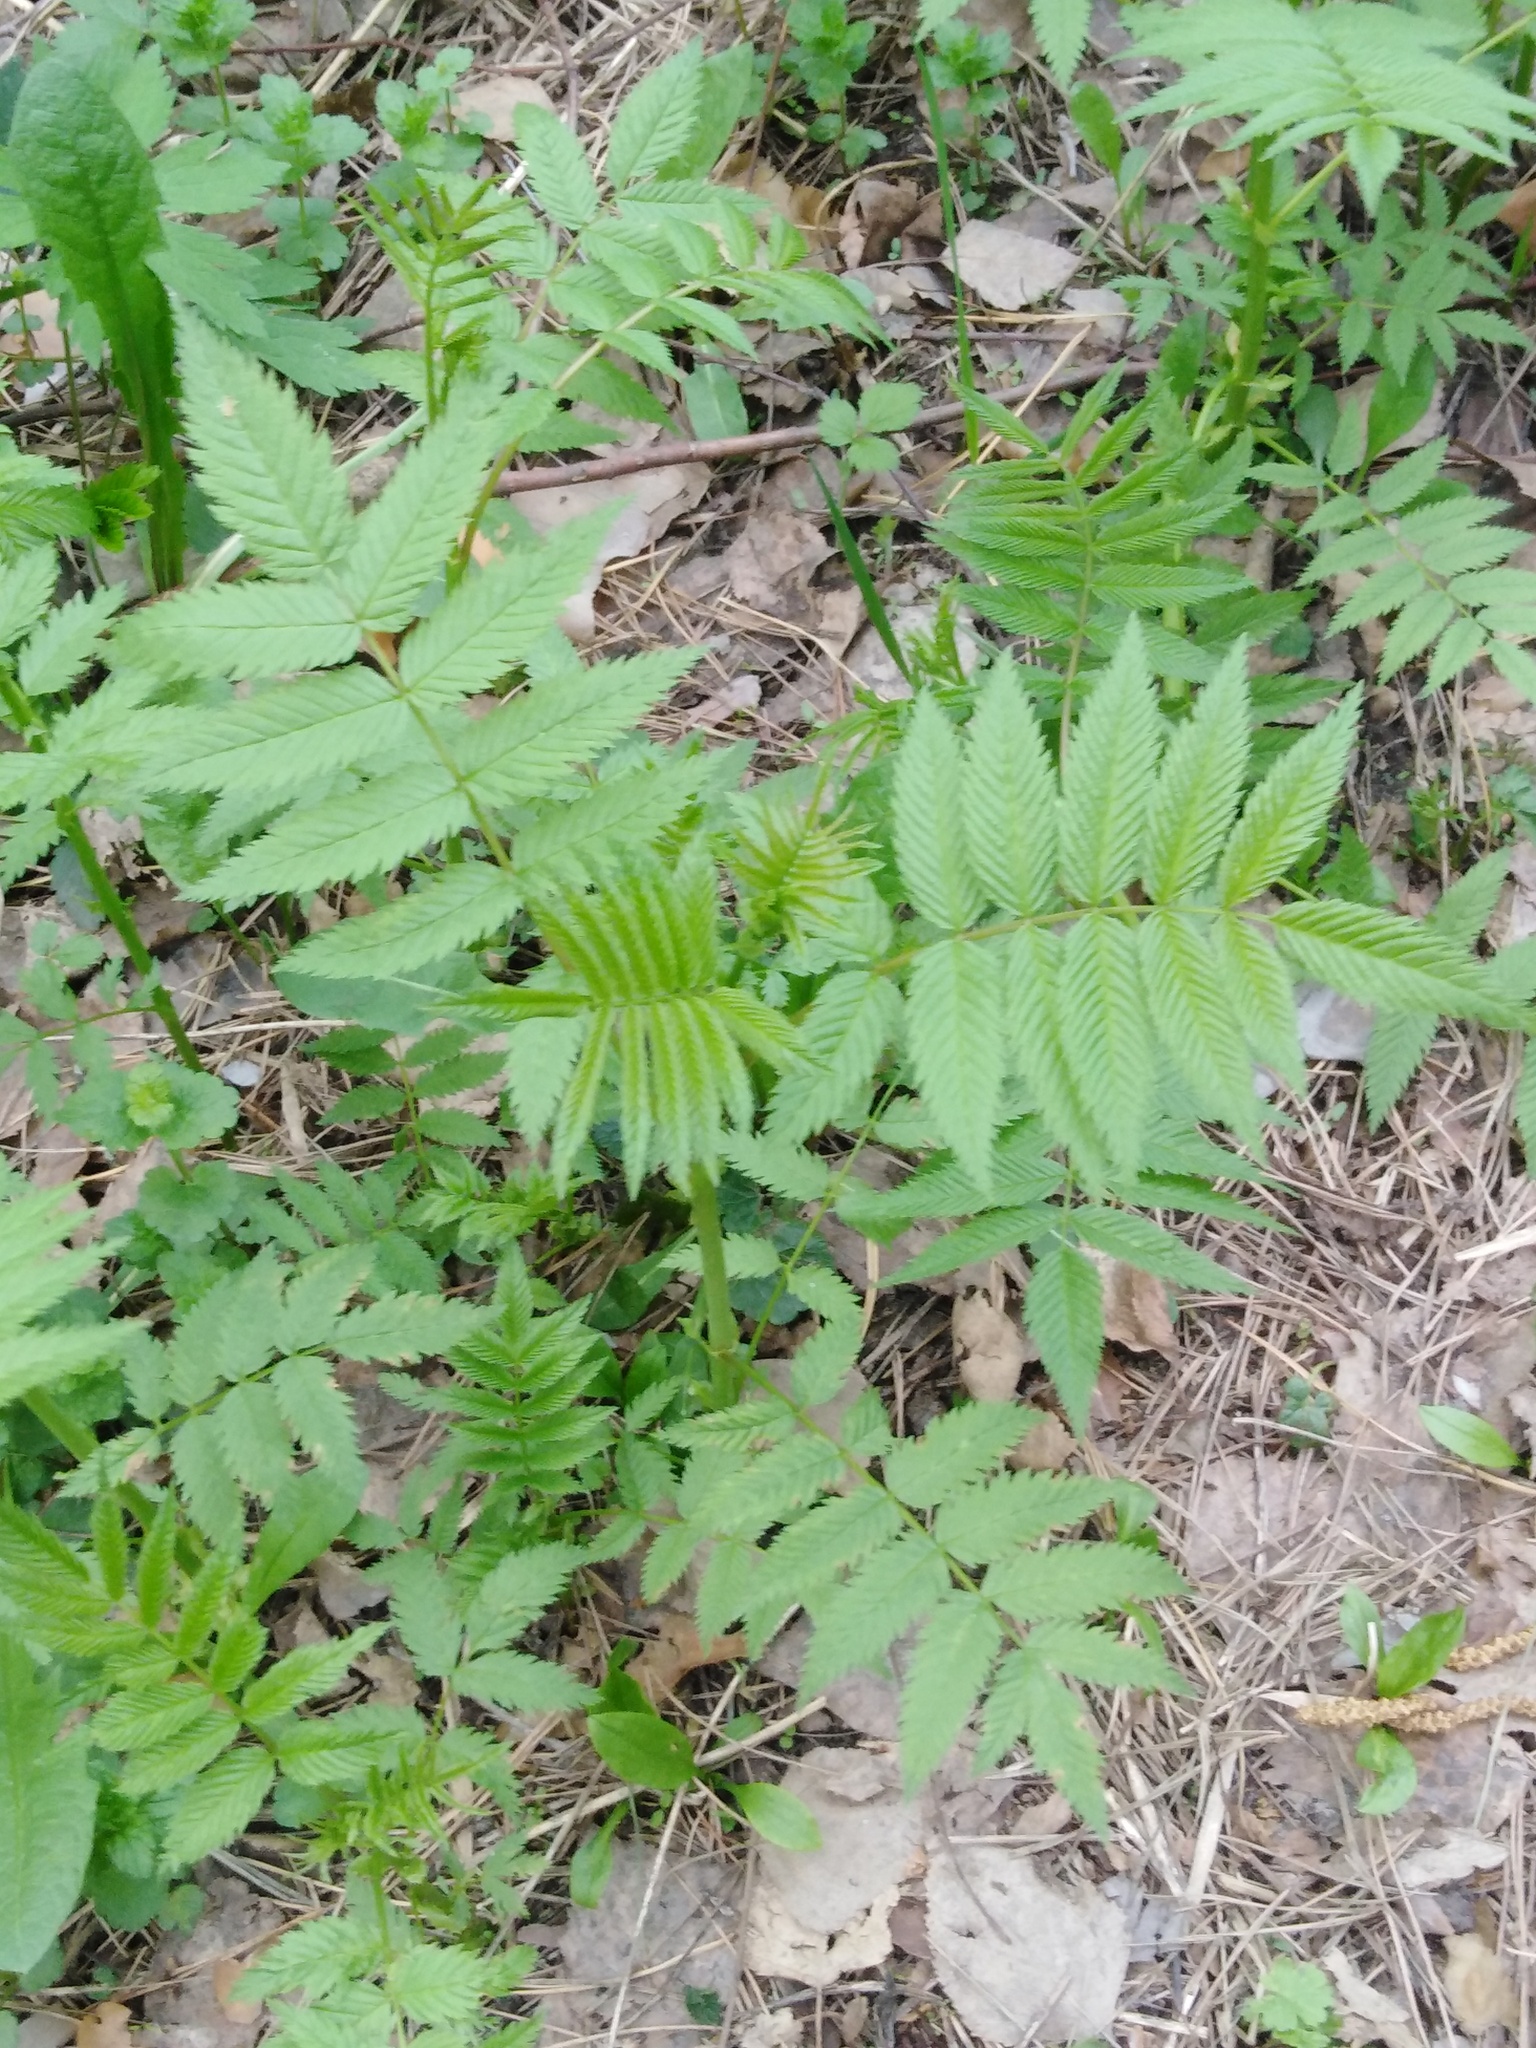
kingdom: Plantae
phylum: Tracheophyta
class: Magnoliopsida
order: Rosales
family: Rosaceae
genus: Sorbaria
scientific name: Sorbaria sorbifolia
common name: False spiraea
